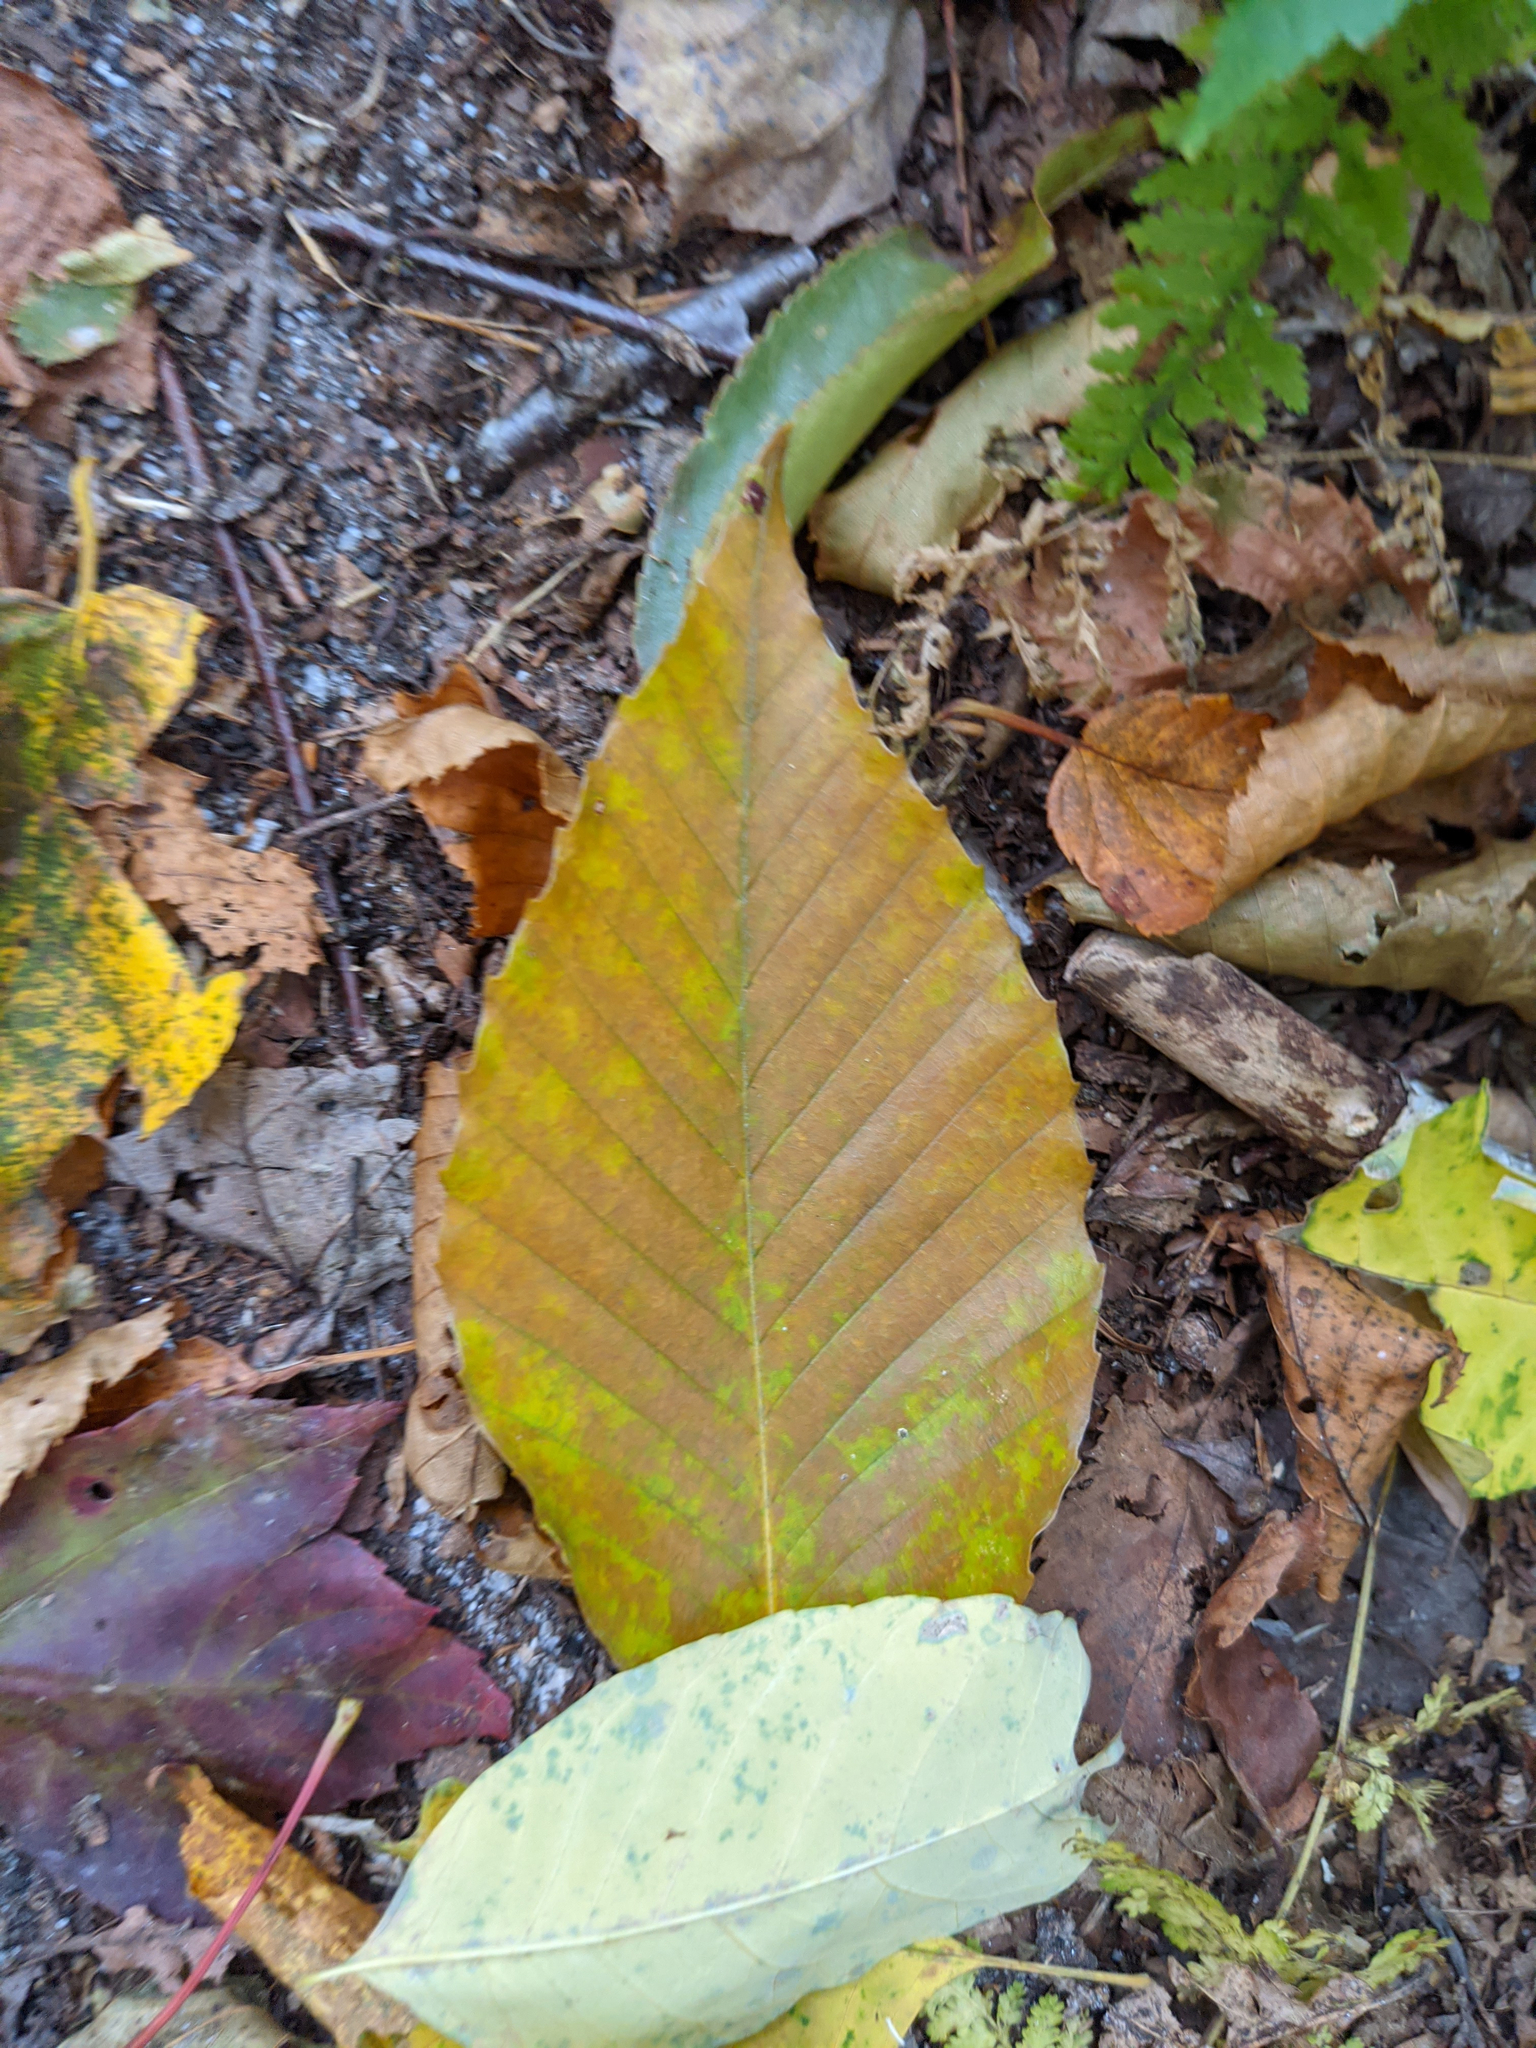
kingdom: Plantae
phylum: Tracheophyta
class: Magnoliopsida
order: Fagales
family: Fagaceae
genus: Fagus
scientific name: Fagus grandifolia
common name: American beech
